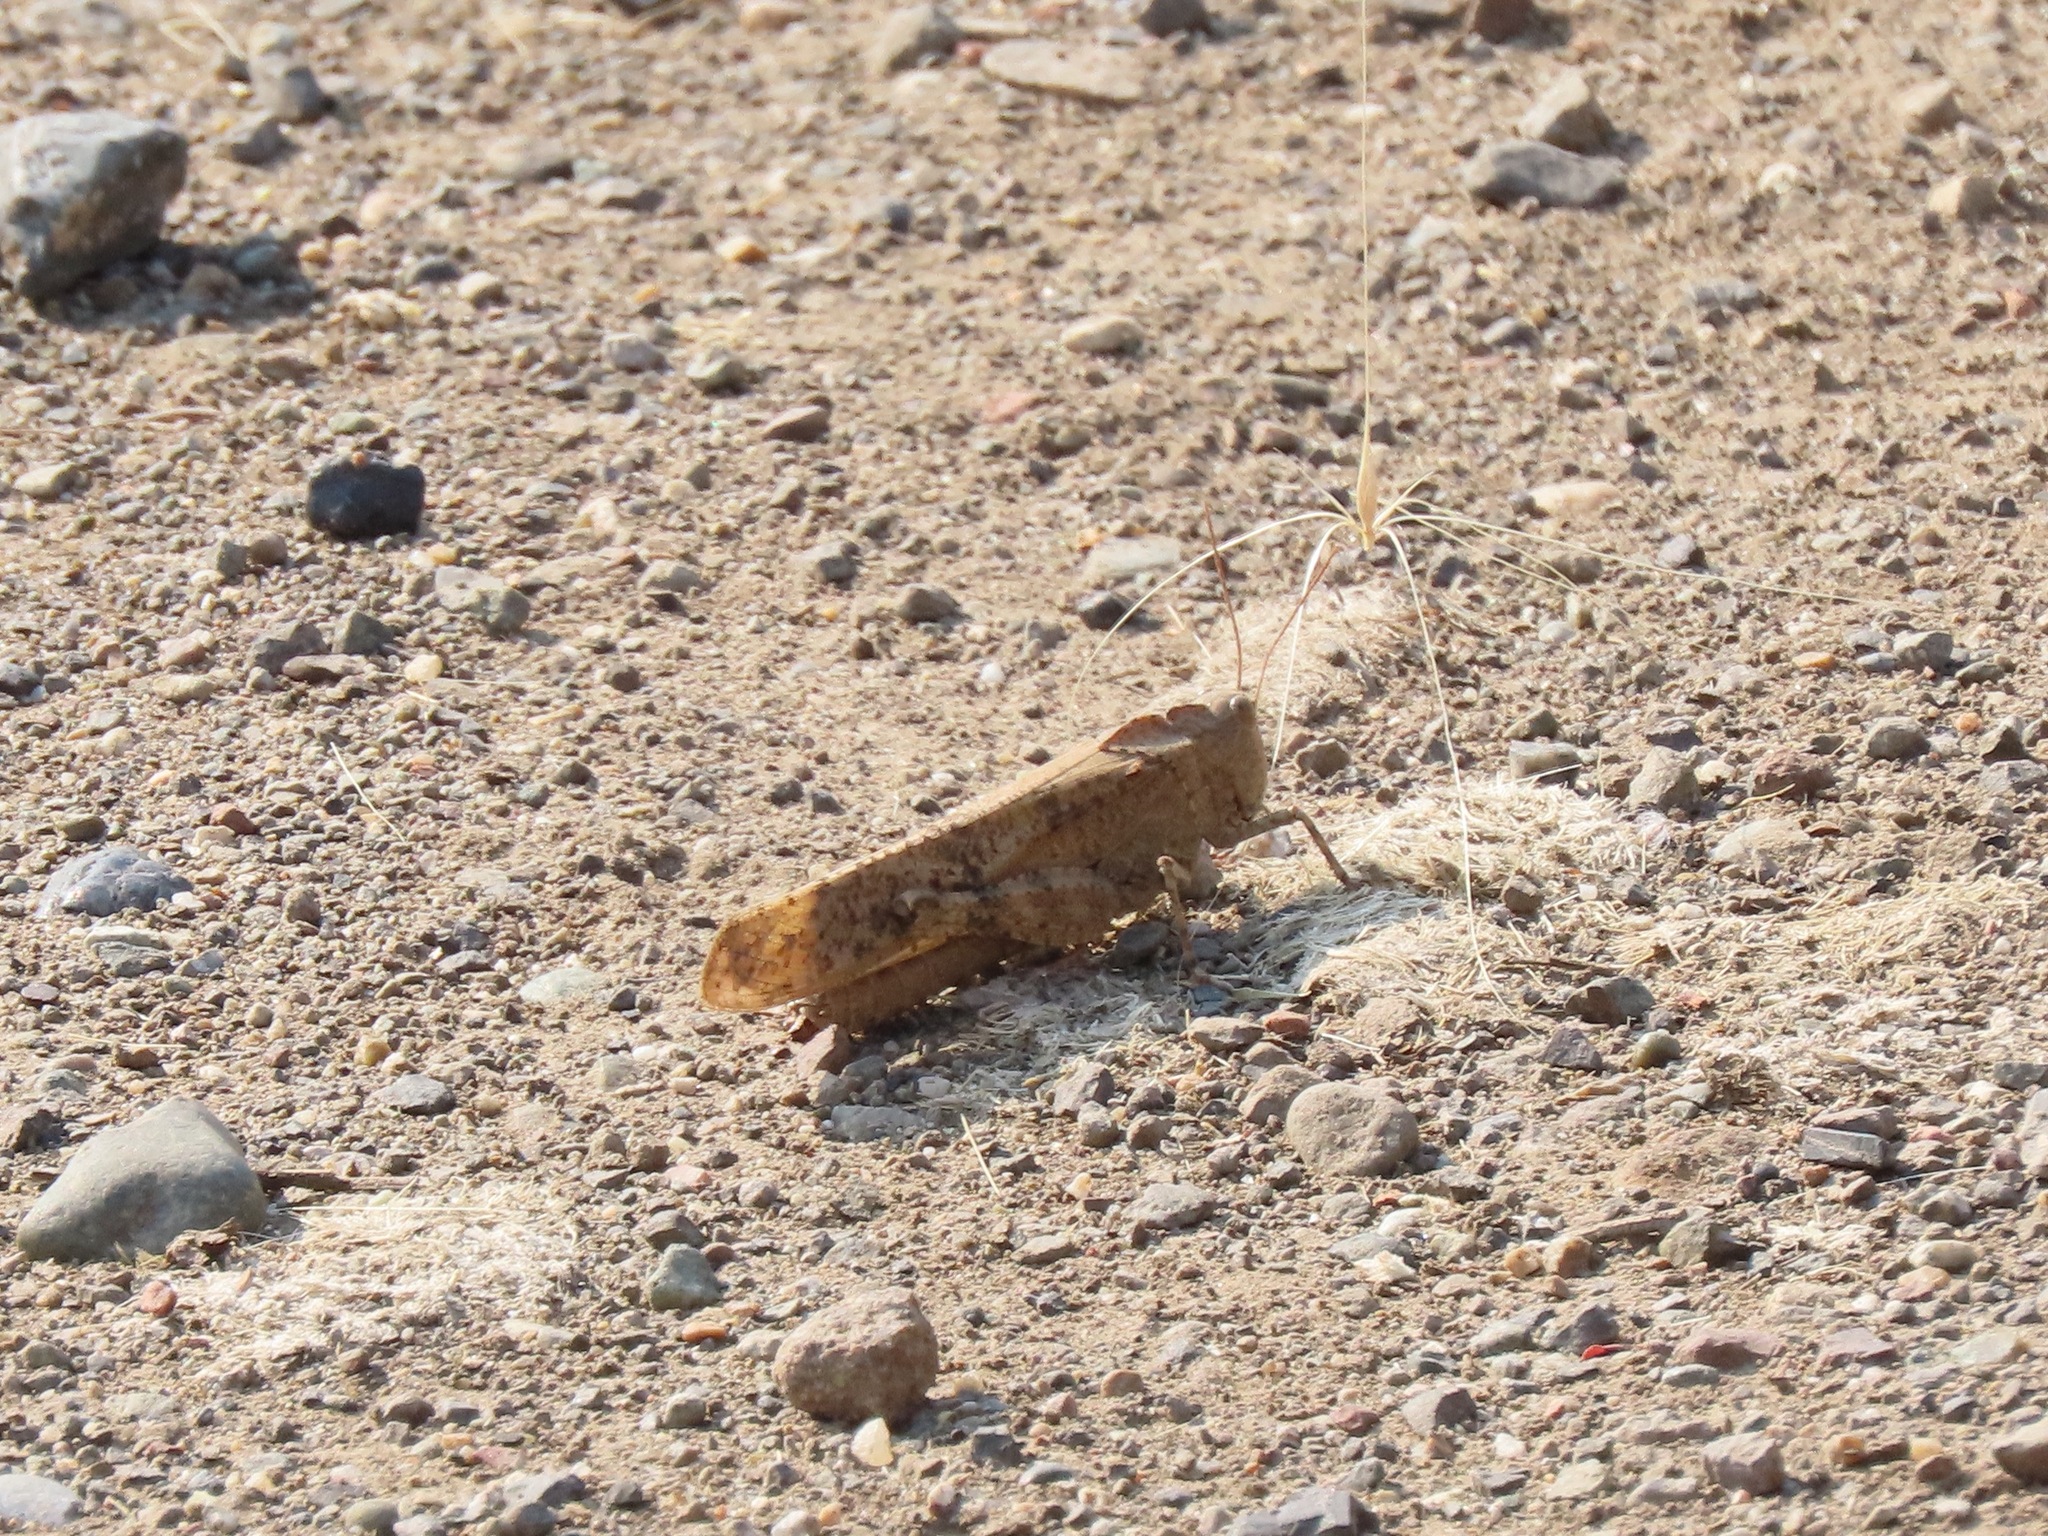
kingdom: Animalia
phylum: Arthropoda
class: Insecta
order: Orthoptera
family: Acrididae
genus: Dissosteira
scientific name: Dissosteira carolina
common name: Carolina grasshopper
